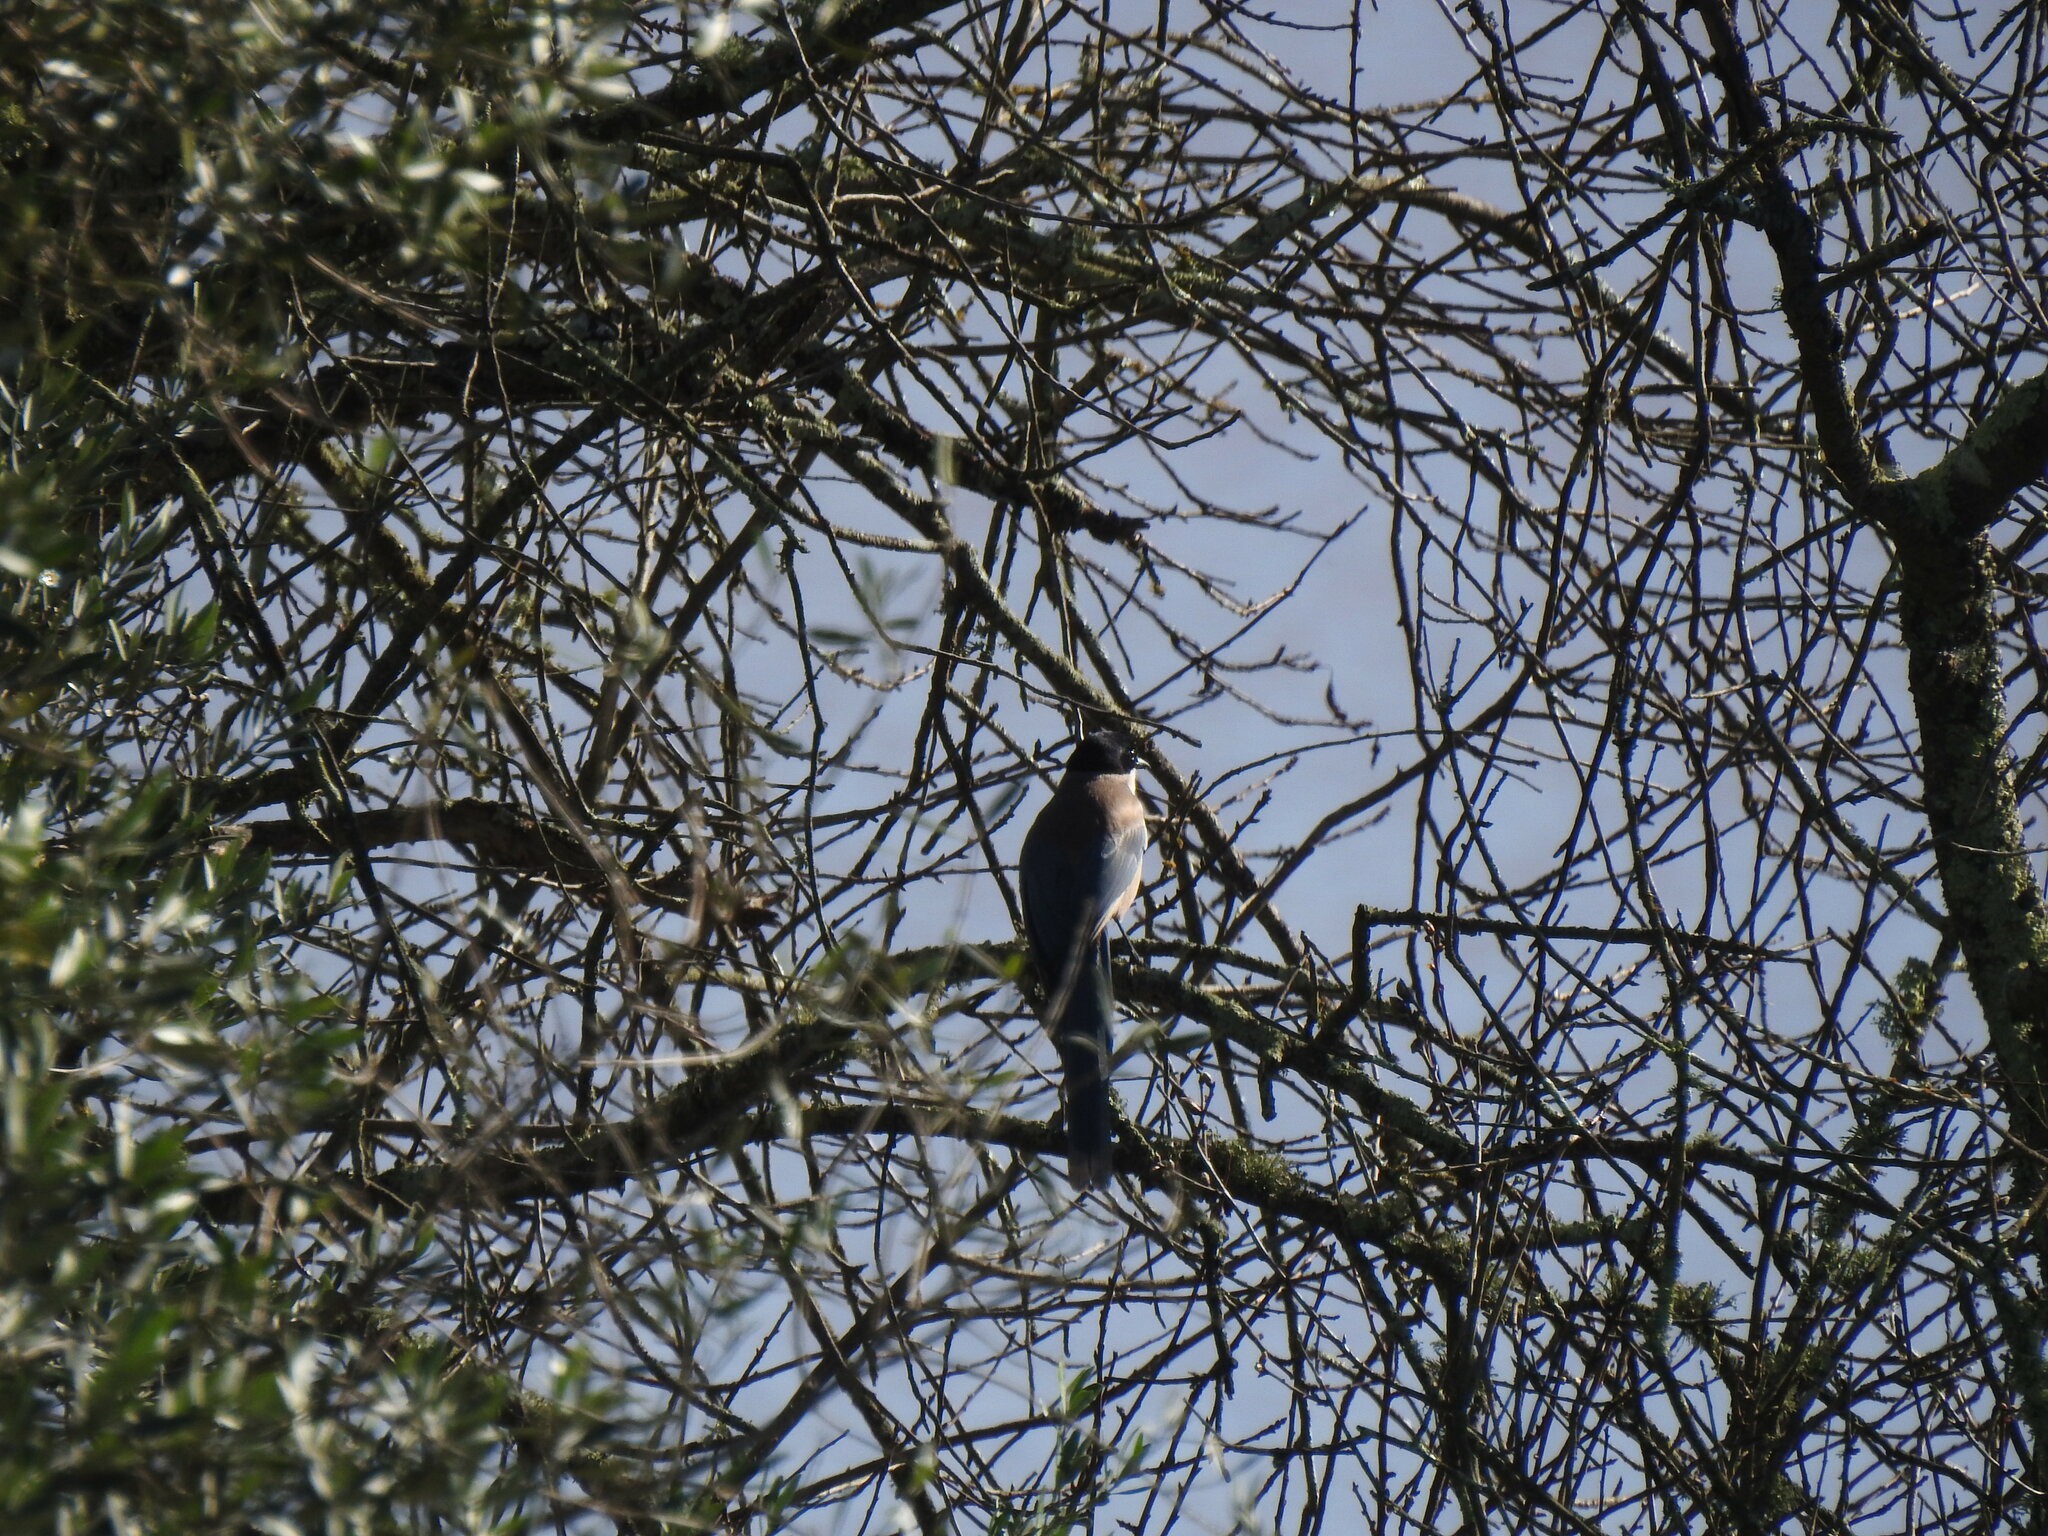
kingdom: Animalia
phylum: Chordata
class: Aves
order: Passeriformes
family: Corvidae
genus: Cyanopica
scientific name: Cyanopica cooki
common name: Iberian magpie
